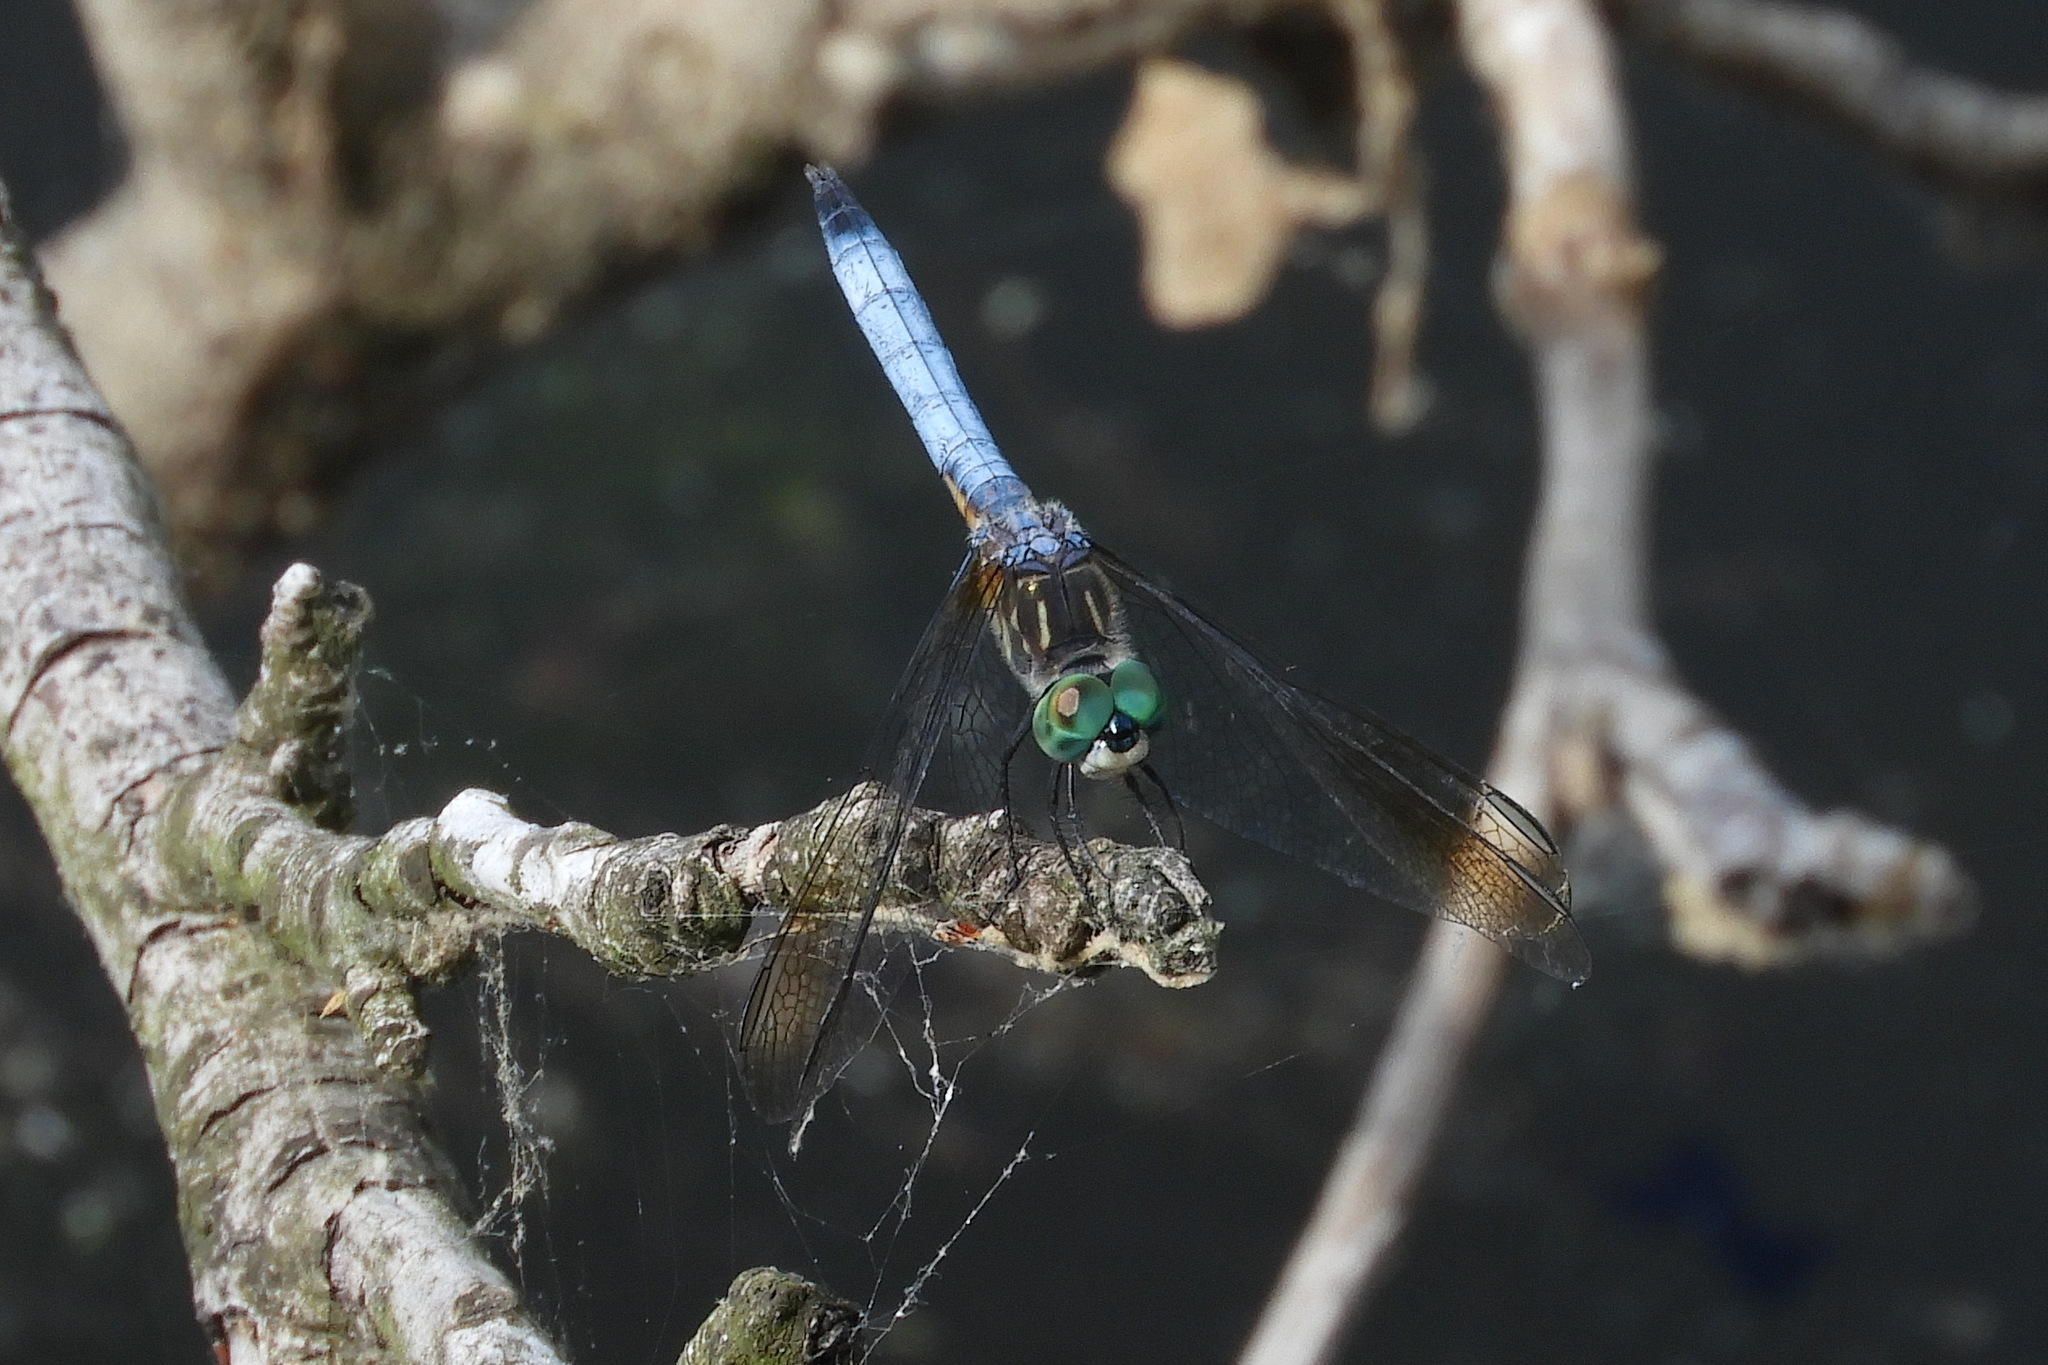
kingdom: Animalia
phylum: Arthropoda
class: Insecta
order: Odonata
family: Libellulidae
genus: Pachydiplax
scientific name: Pachydiplax longipennis
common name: Blue dasher
